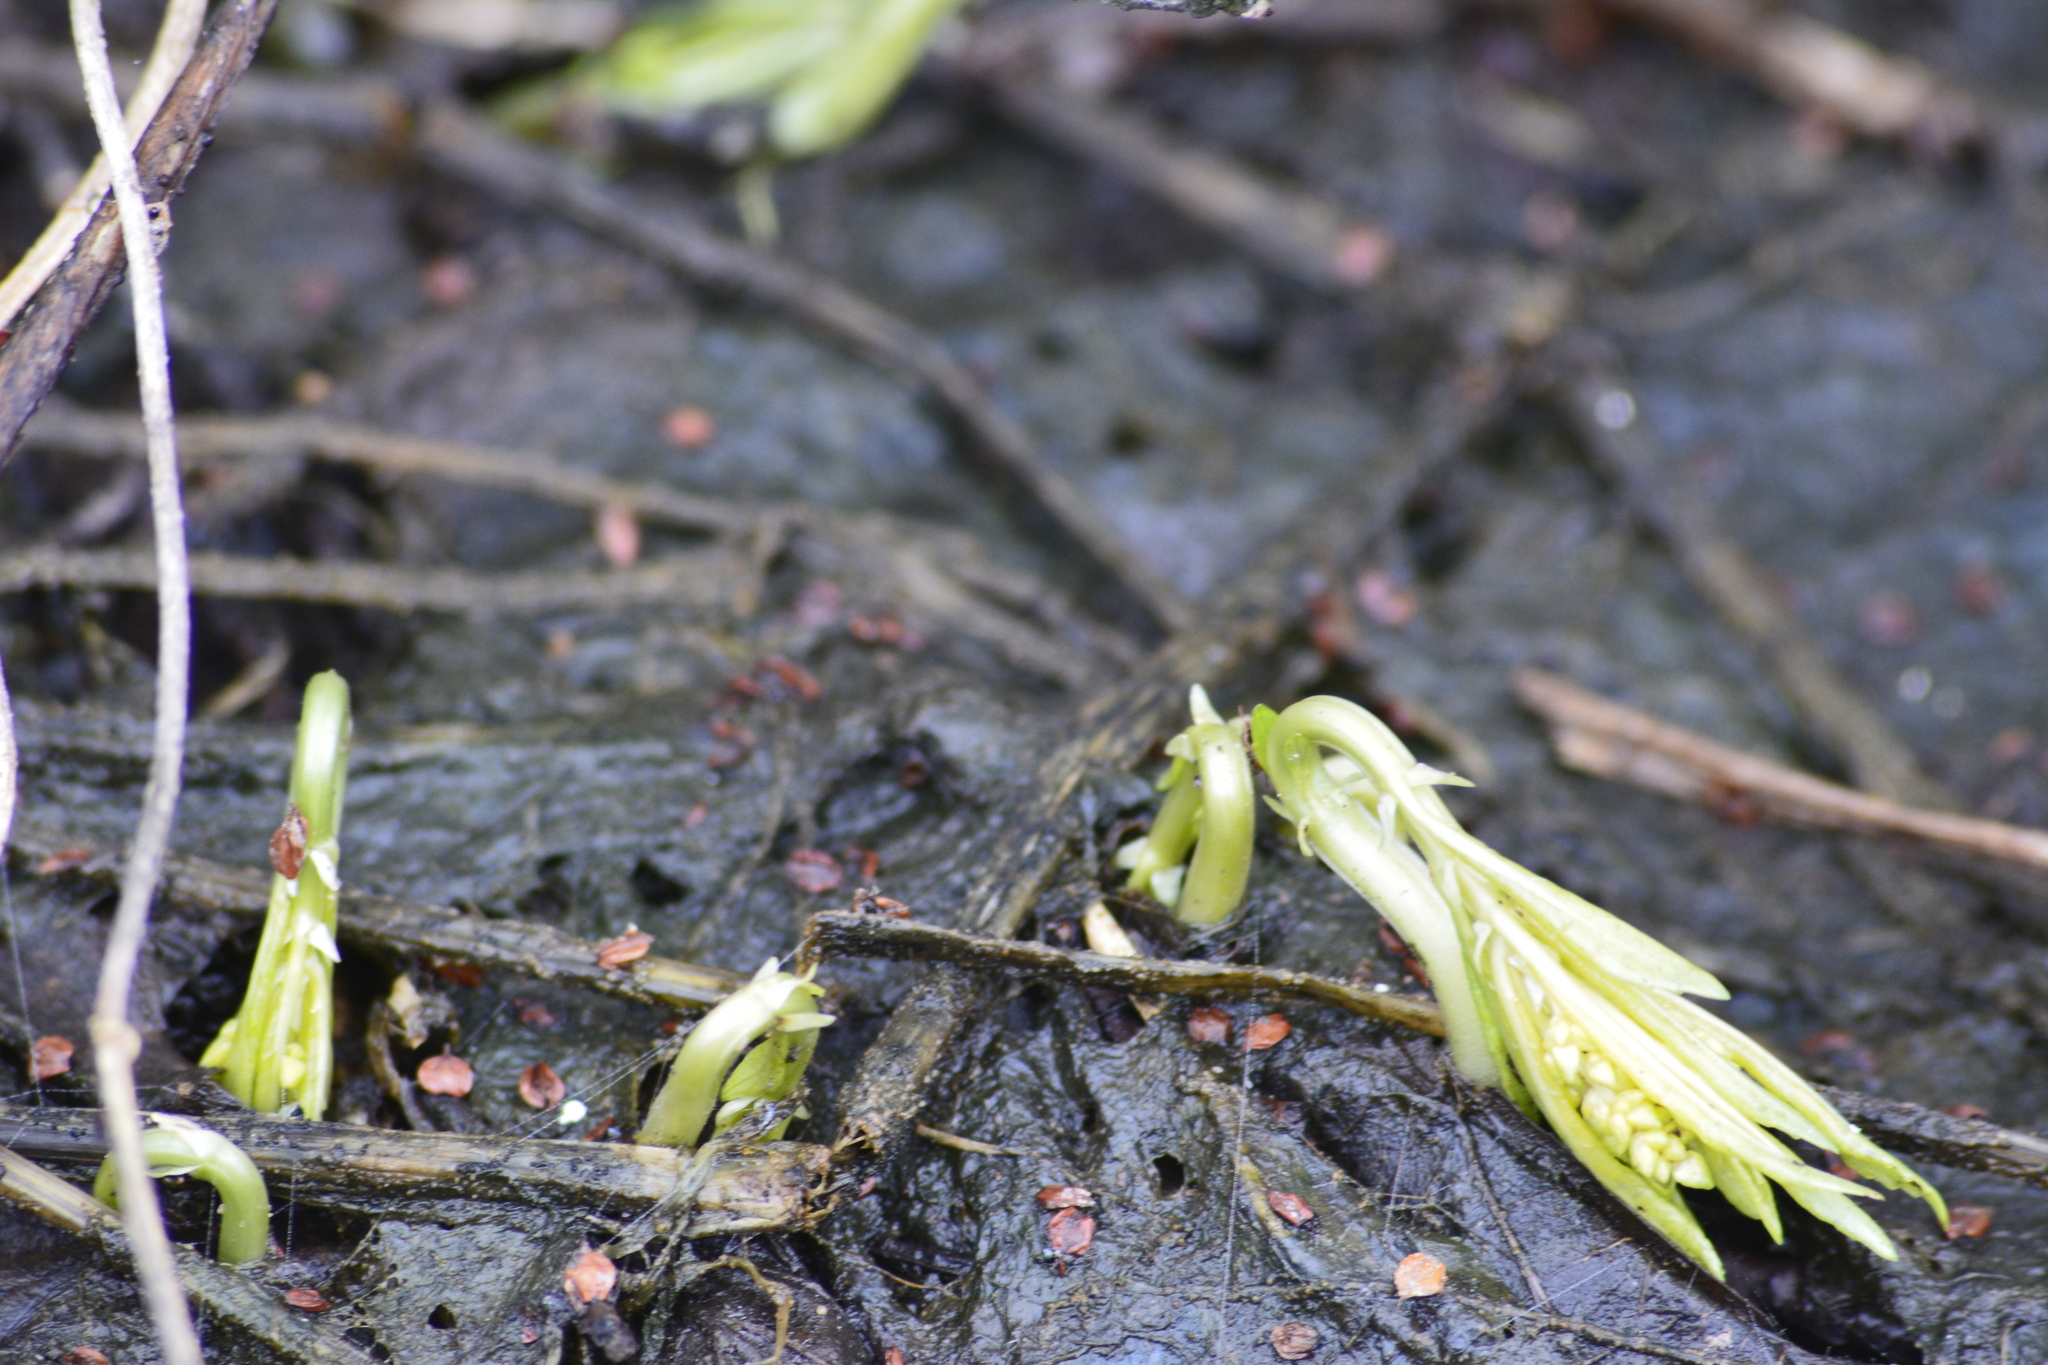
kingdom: Plantae
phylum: Tracheophyta
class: Magnoliopsida
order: Malpighiales
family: Euphorbiaceae
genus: Mercurialis
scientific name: Mercurialis perennis
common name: Dog mercury
